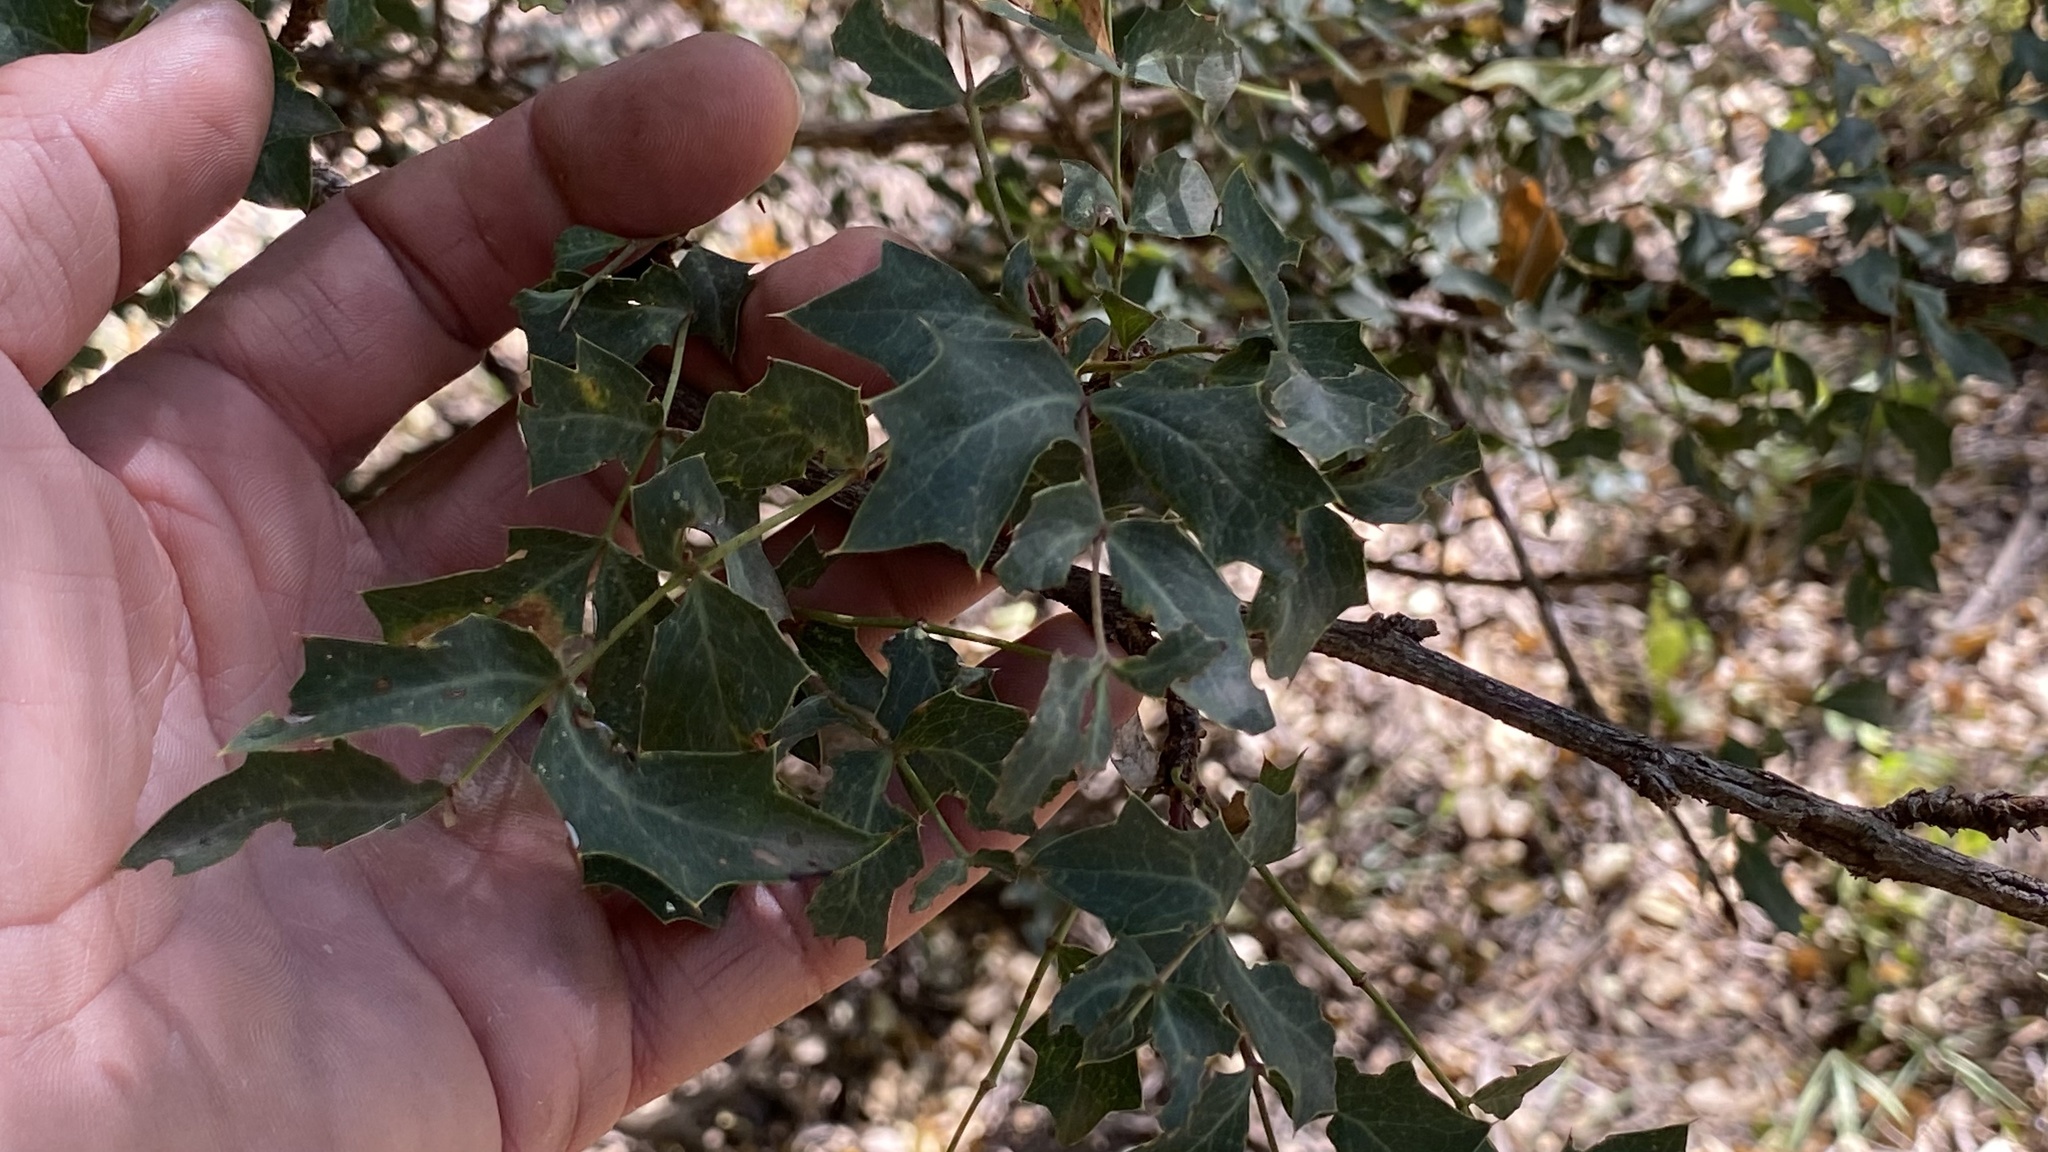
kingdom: Plantae
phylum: Tracheophyta
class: Magnoliopsida
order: Ranunculales
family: Berberidaceae
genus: Alloberberis
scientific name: Alloberberis haematocarpa
